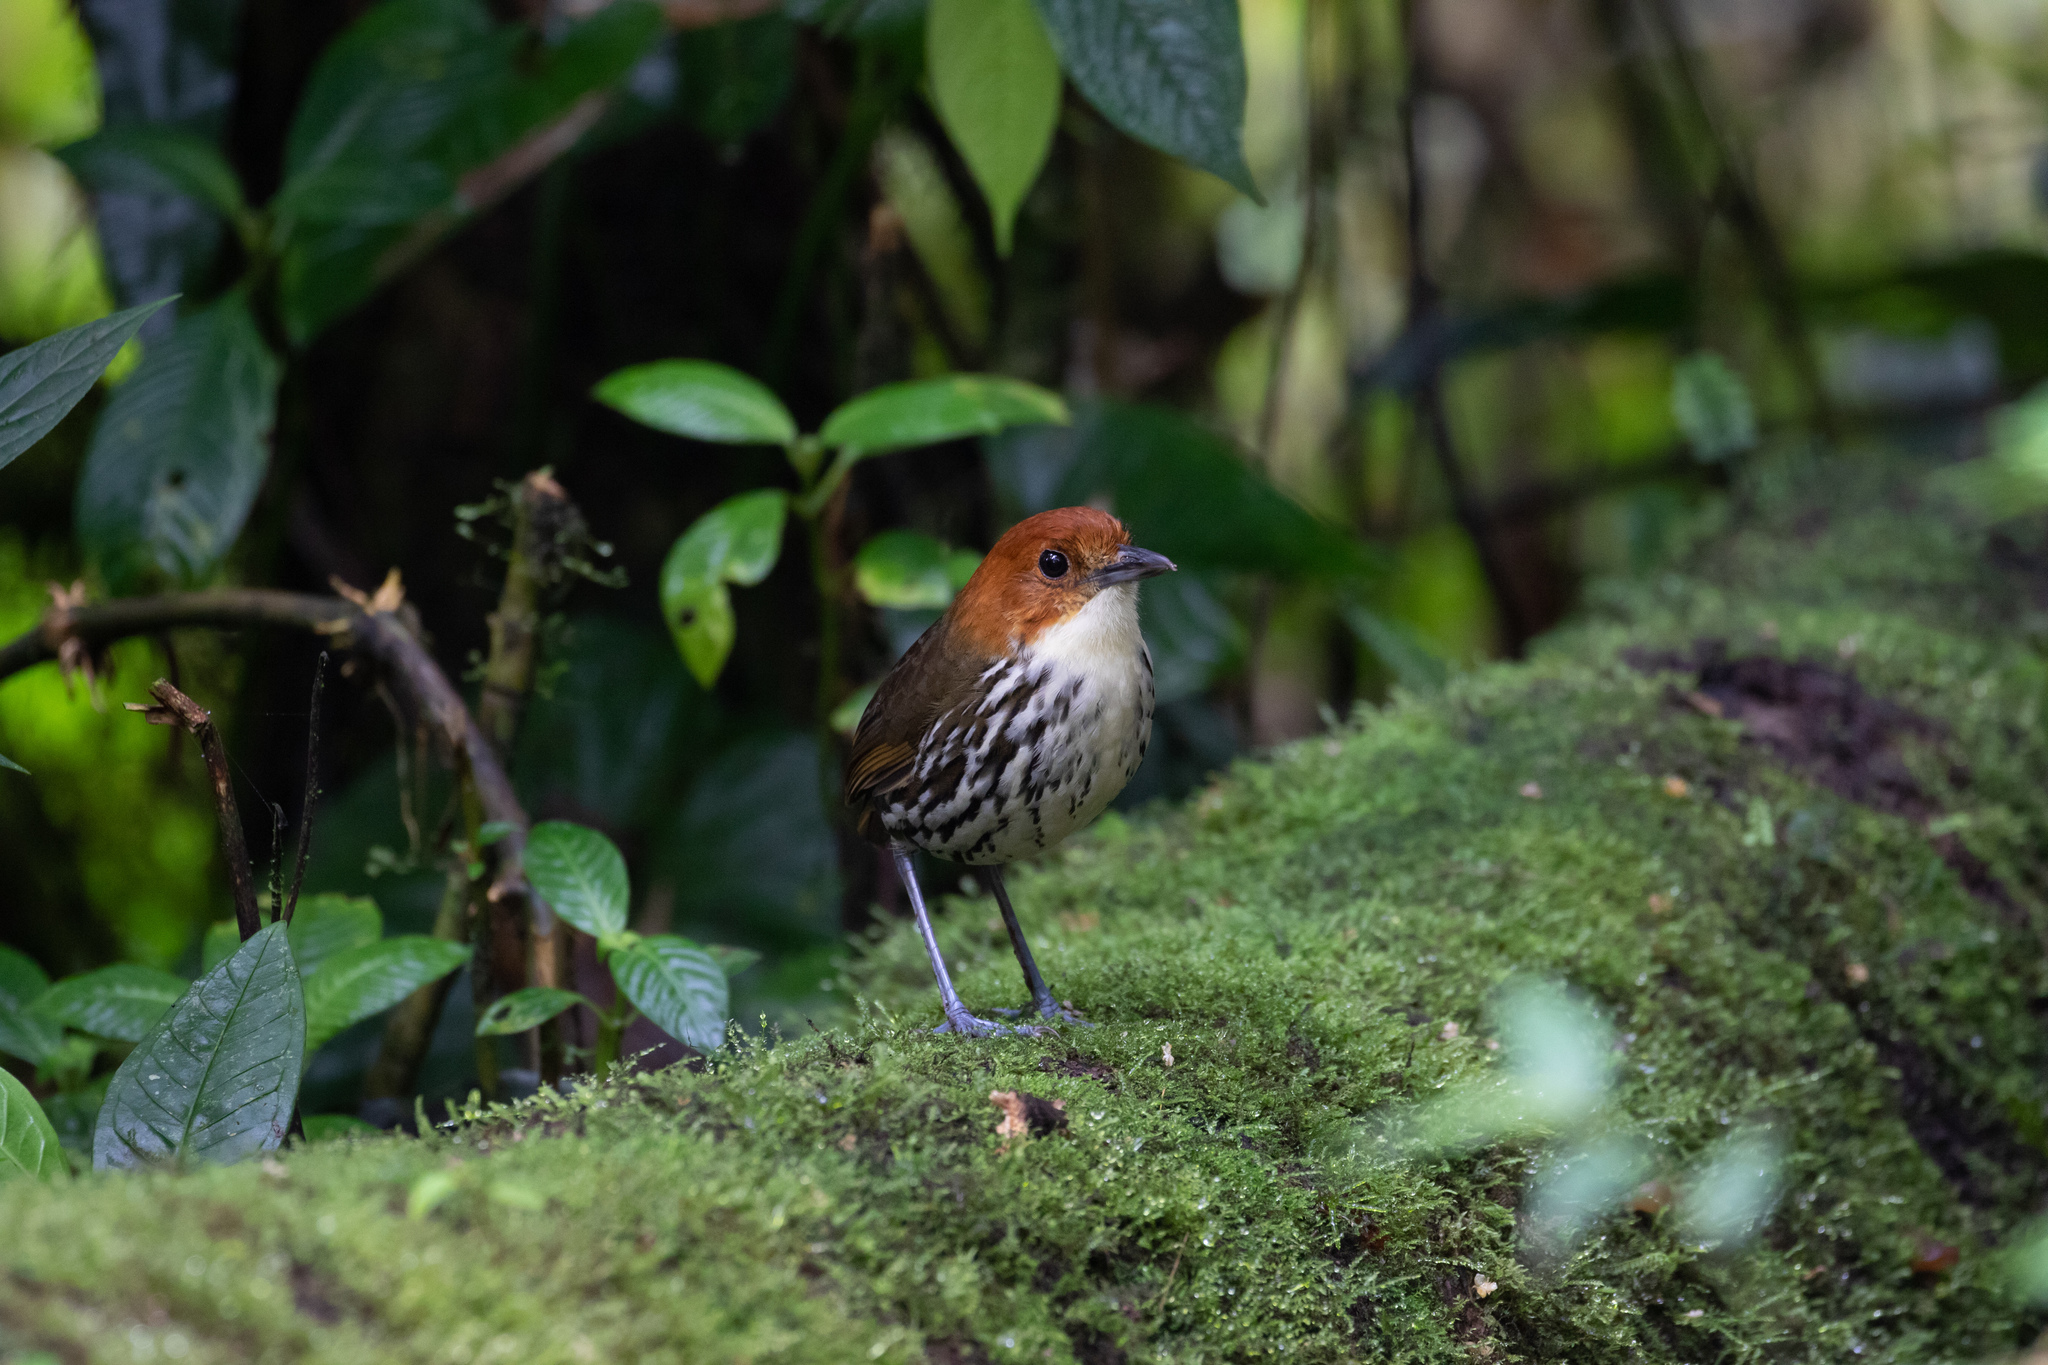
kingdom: Animalia
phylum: Chordata
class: Aves
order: Passeriformes
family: Grallariidae
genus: Grallaria
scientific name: Grallaria ruficapilla
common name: Chestnut-crowned antpitta
